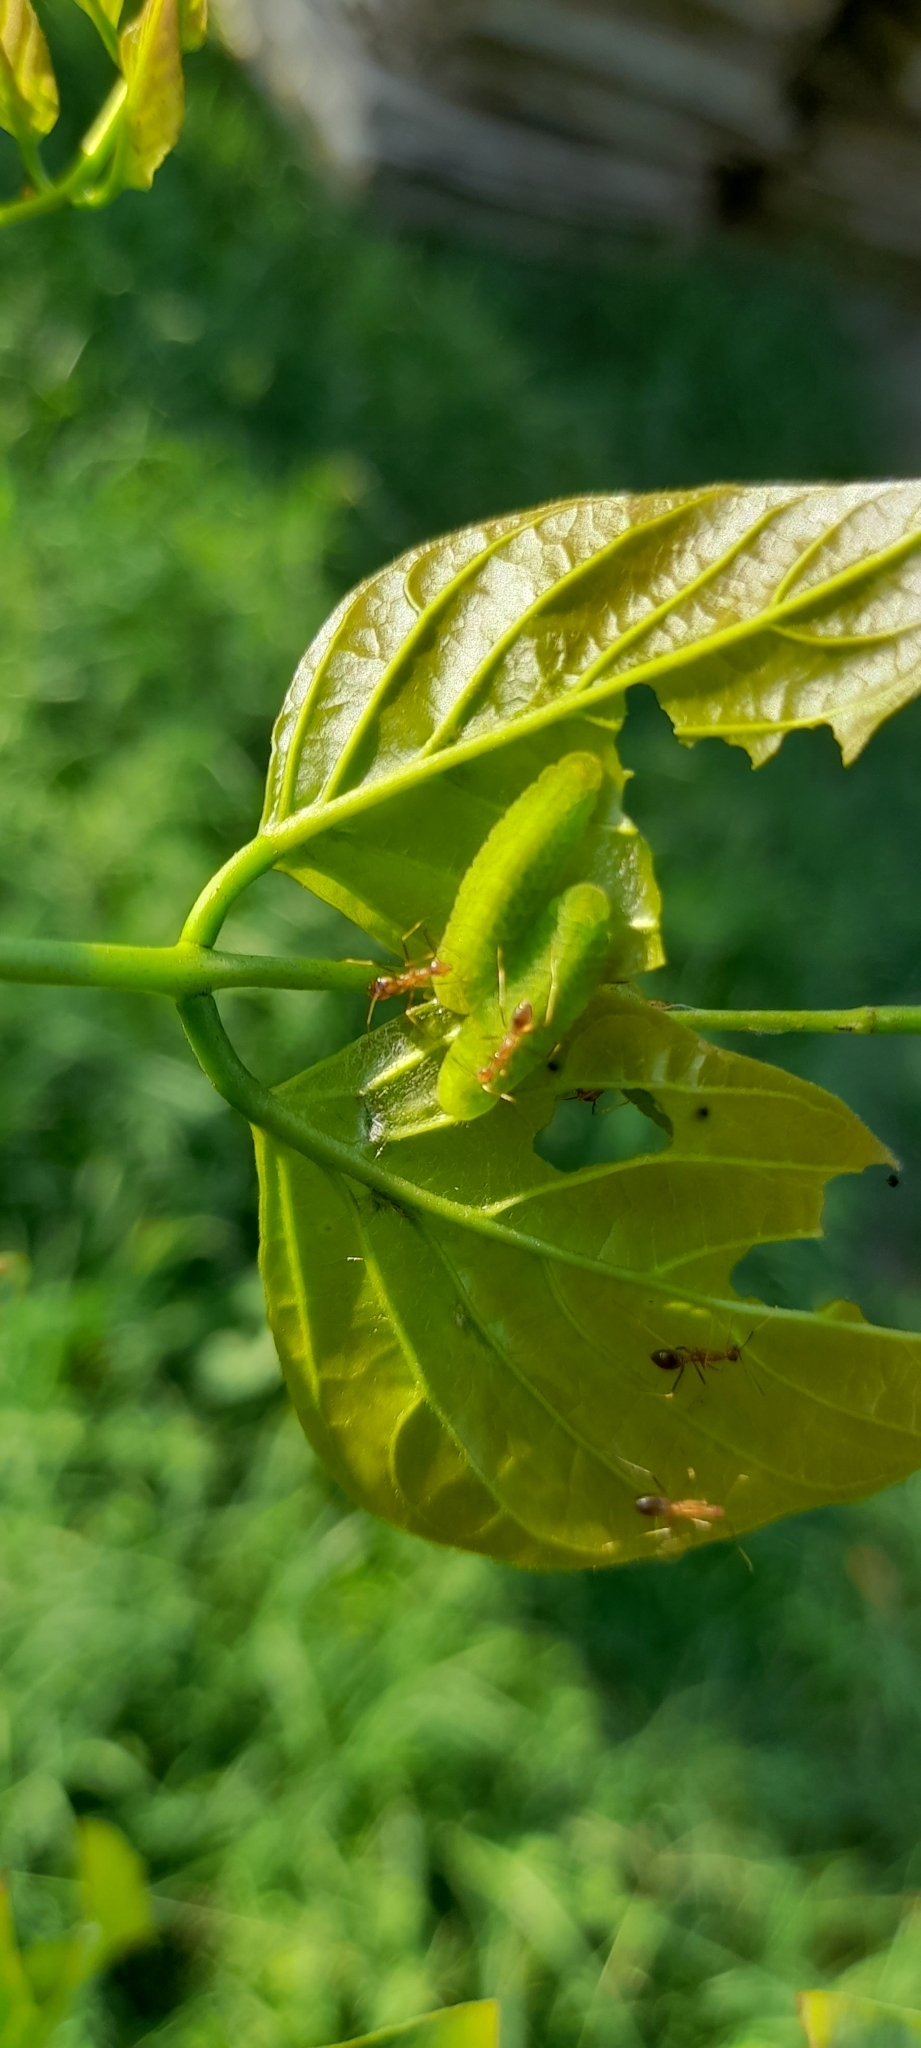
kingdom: Animalia
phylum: Arthropoda
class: Insecta
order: Lepidoptera
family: Lycaenidae
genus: Jamides
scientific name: Jamides celeno
